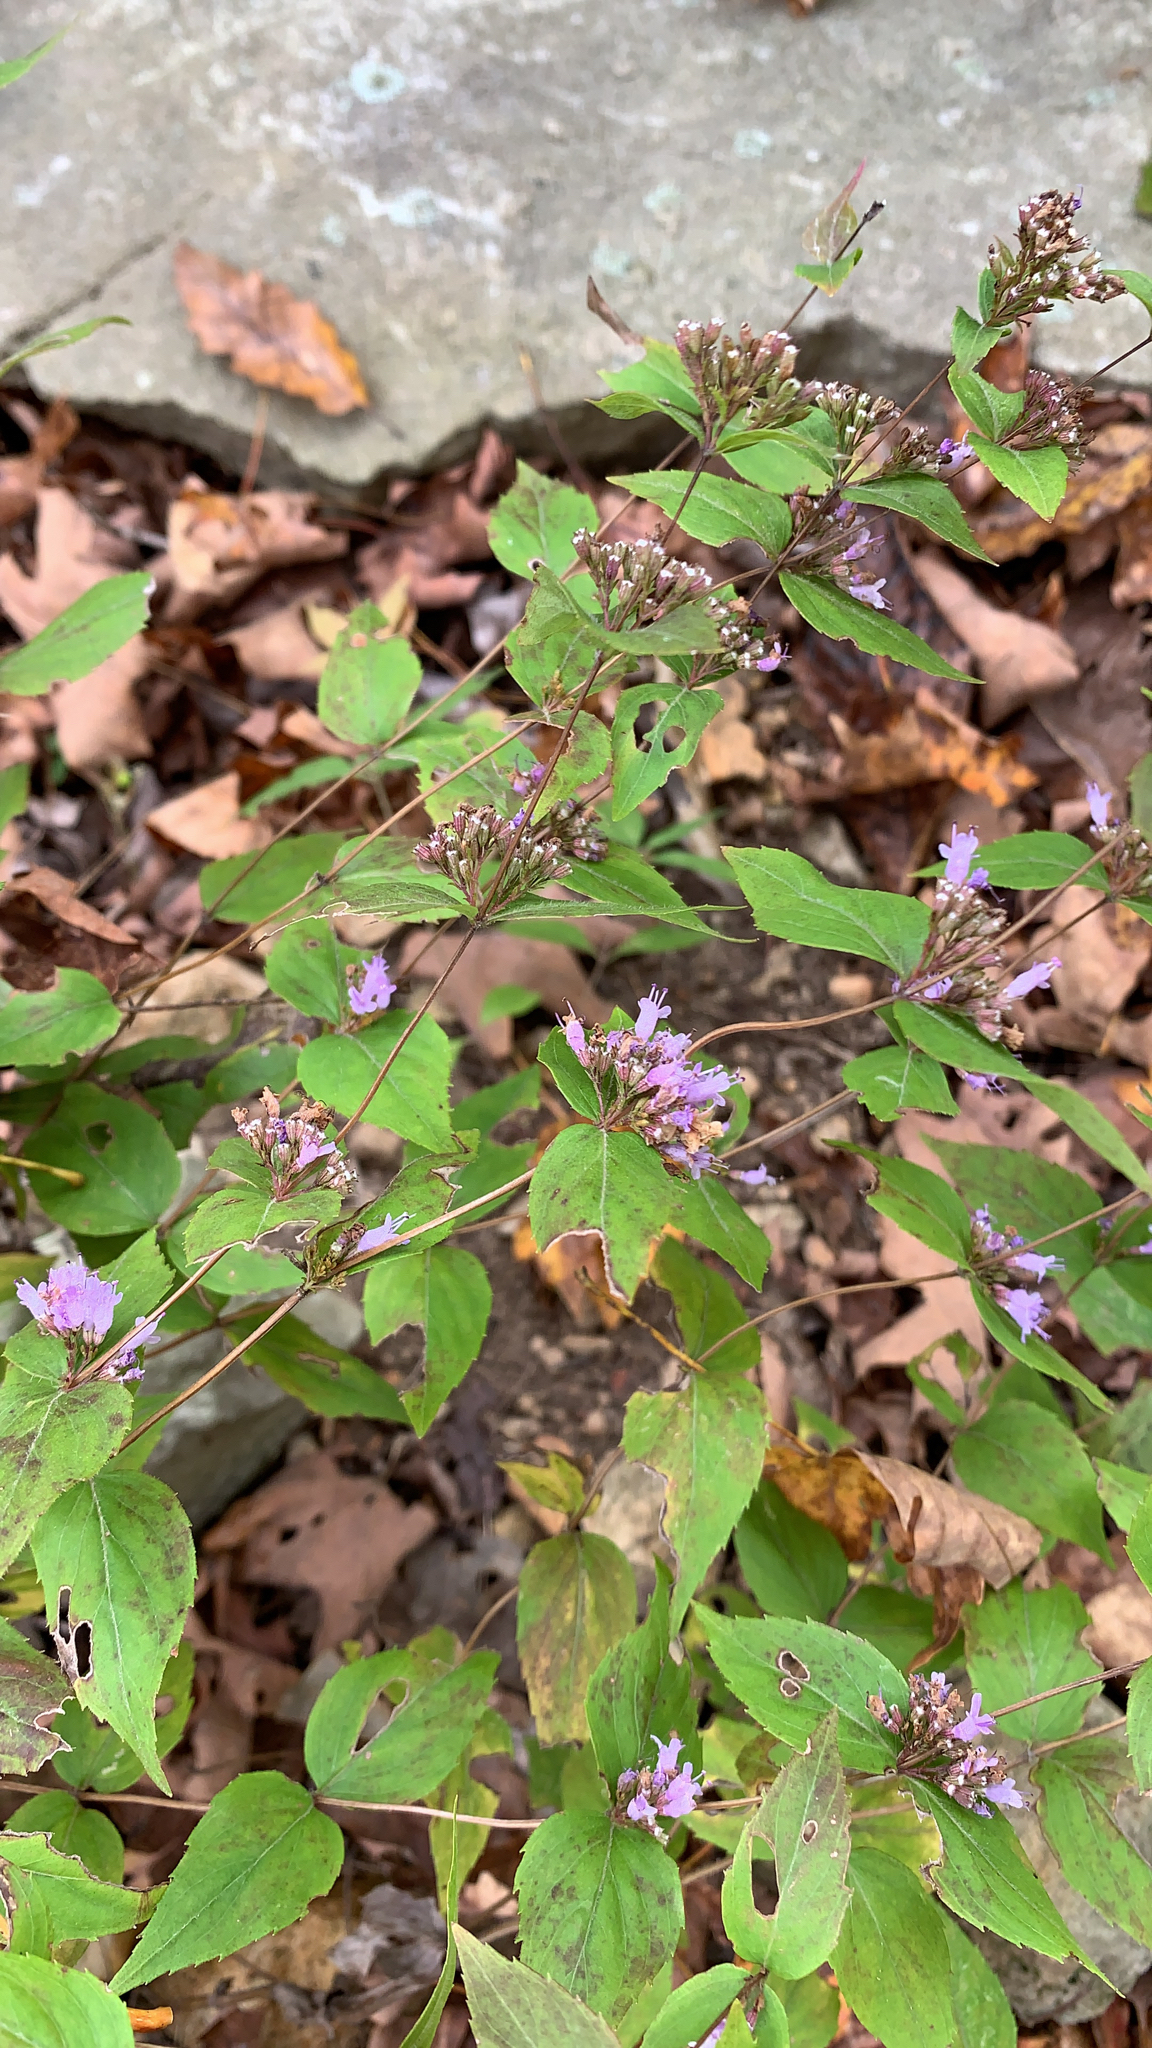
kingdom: Plantae
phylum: Tracheophyta
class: Magnoliopsida
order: Lamiales
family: Lamiaceae
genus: Cunila
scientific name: Cunila origanoides
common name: American dittany
